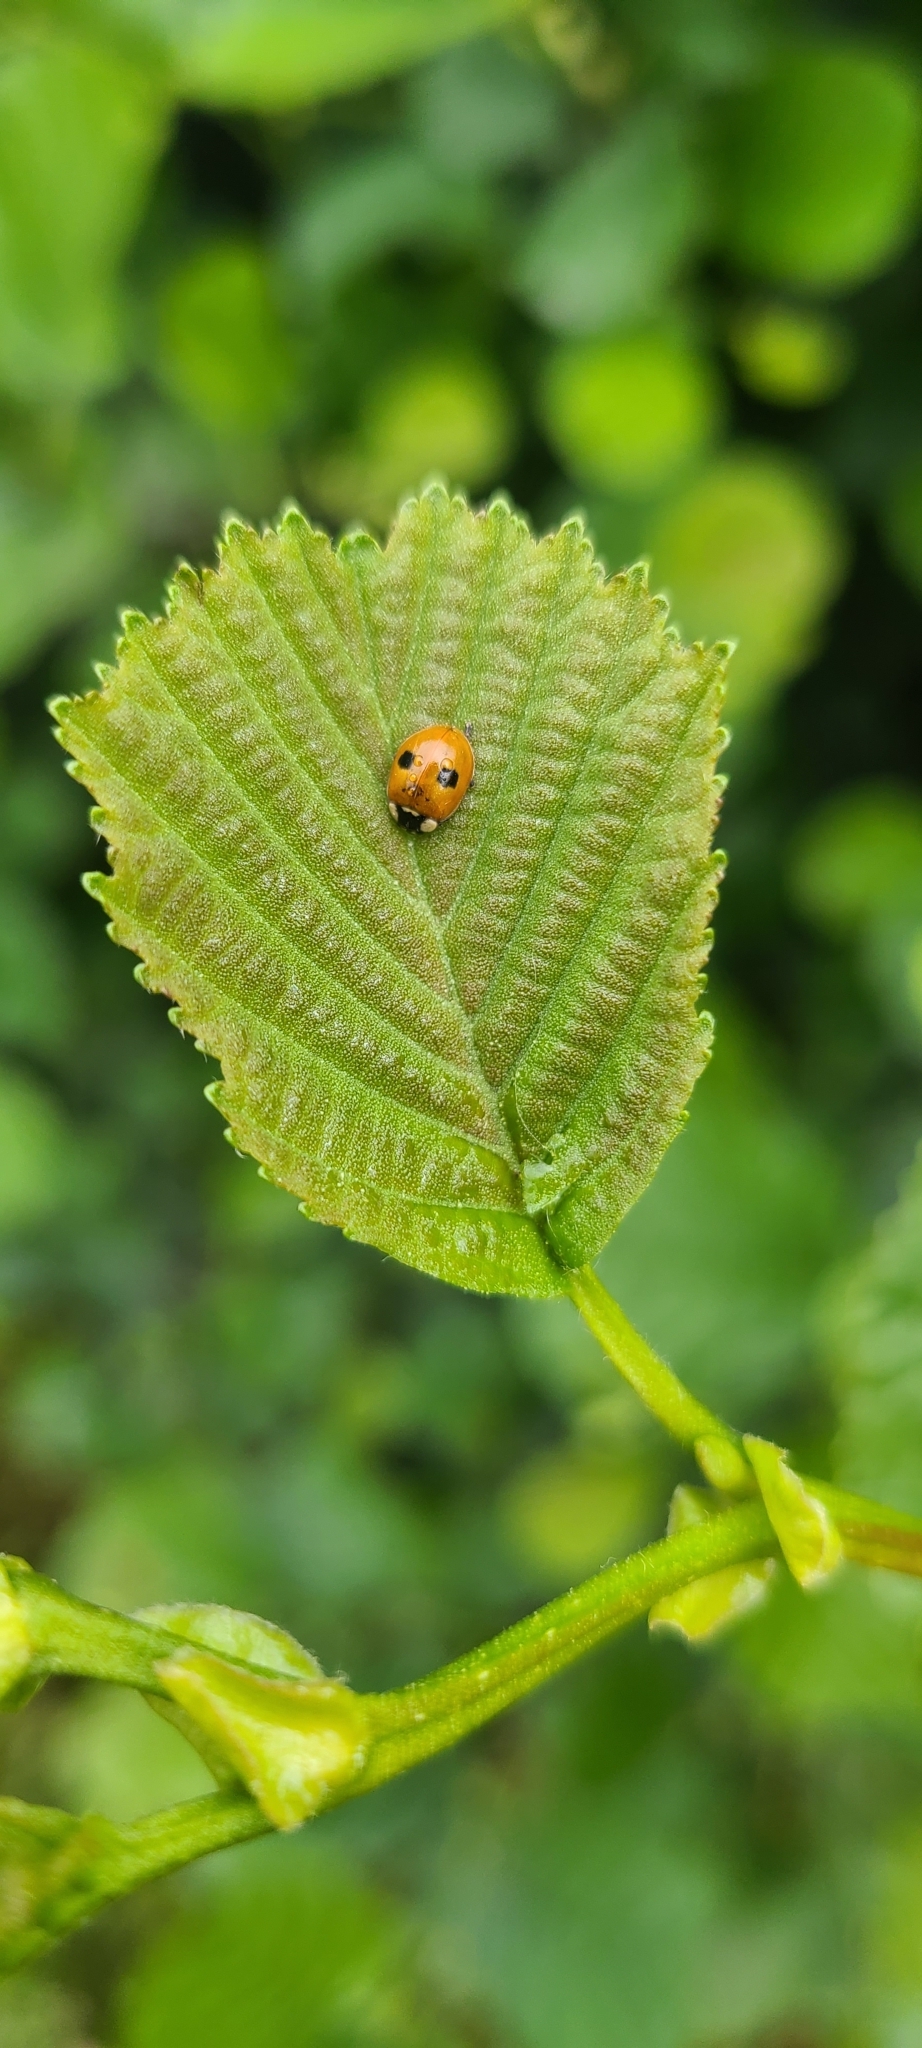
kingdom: Animalia
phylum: Arthropoda
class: Insecta
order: Coleoptera
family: Coccinellidae
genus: Adalia
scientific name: Adalia bipunctata
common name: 2-spot ladybird
